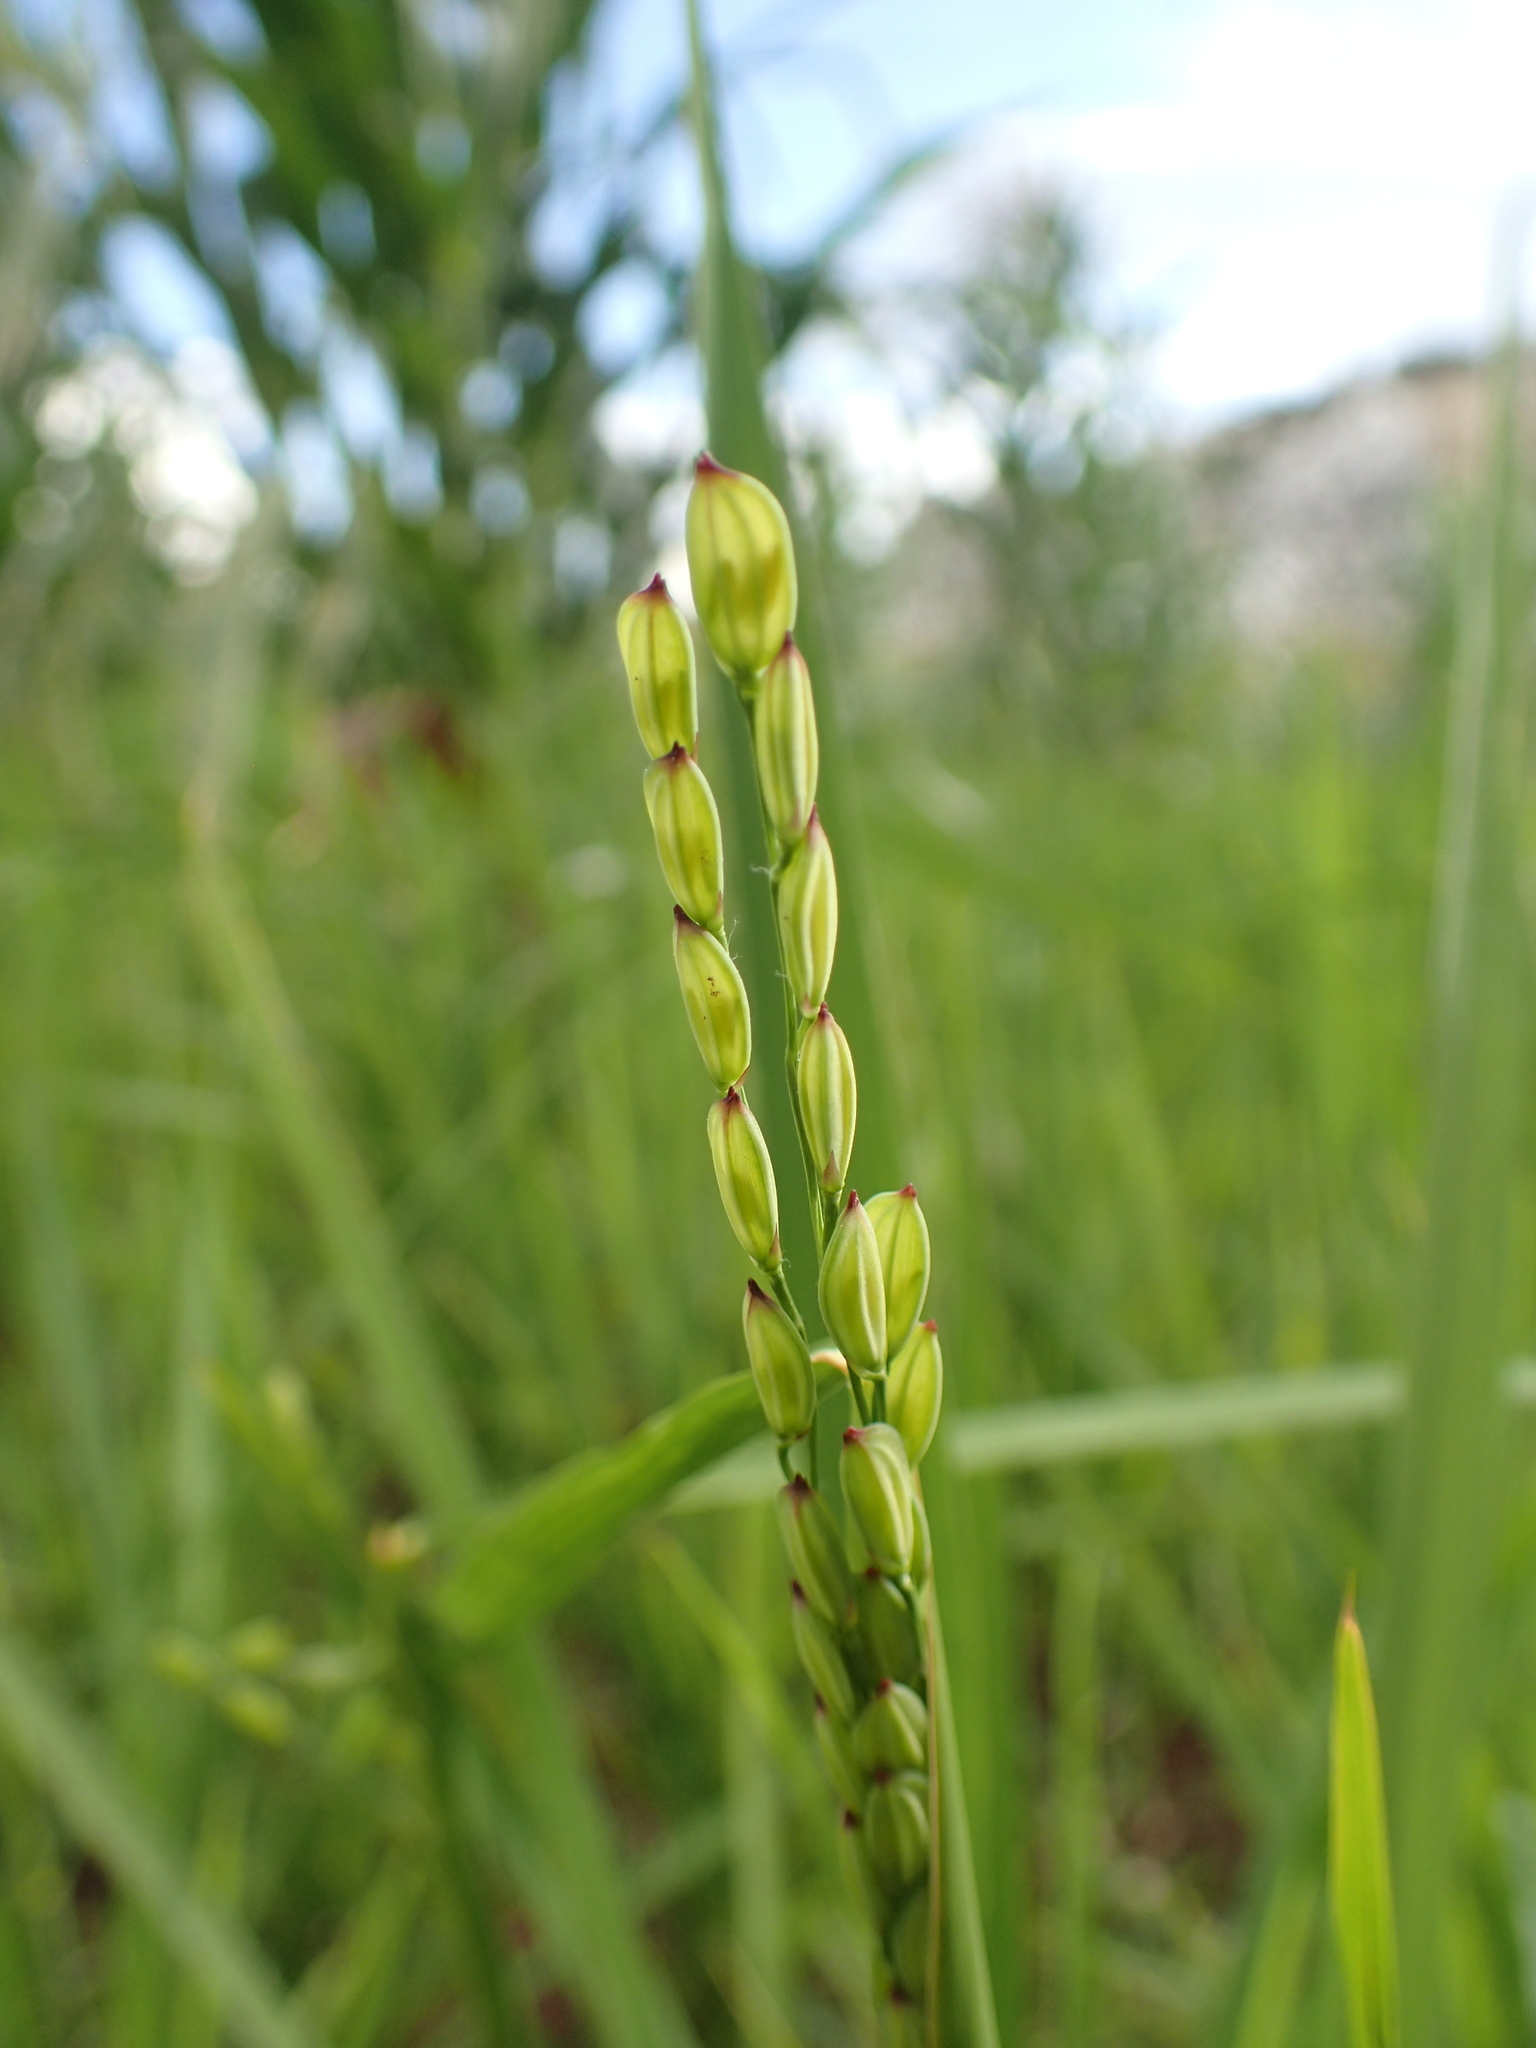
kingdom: Plantae
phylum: Tracheophyta
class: Liliopsida
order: Poales
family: Poaceae
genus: Oryza
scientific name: Oryza sativa
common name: Rice
